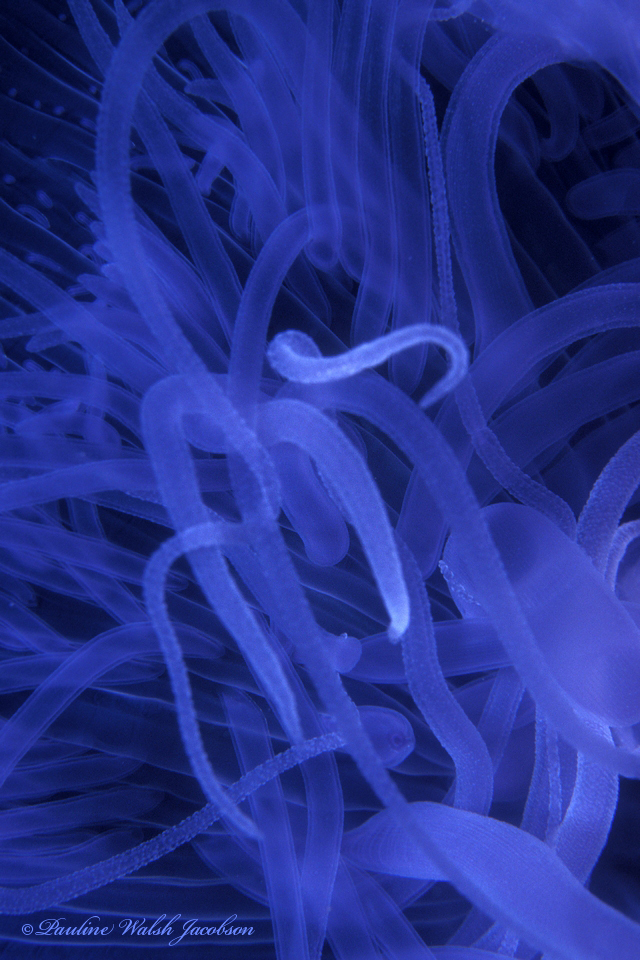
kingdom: Animalia
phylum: Cnidaria
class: Scyphozoa
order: Semaeostomeae
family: Ulmaridae
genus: Aurelia
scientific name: Aurelia marginalis
